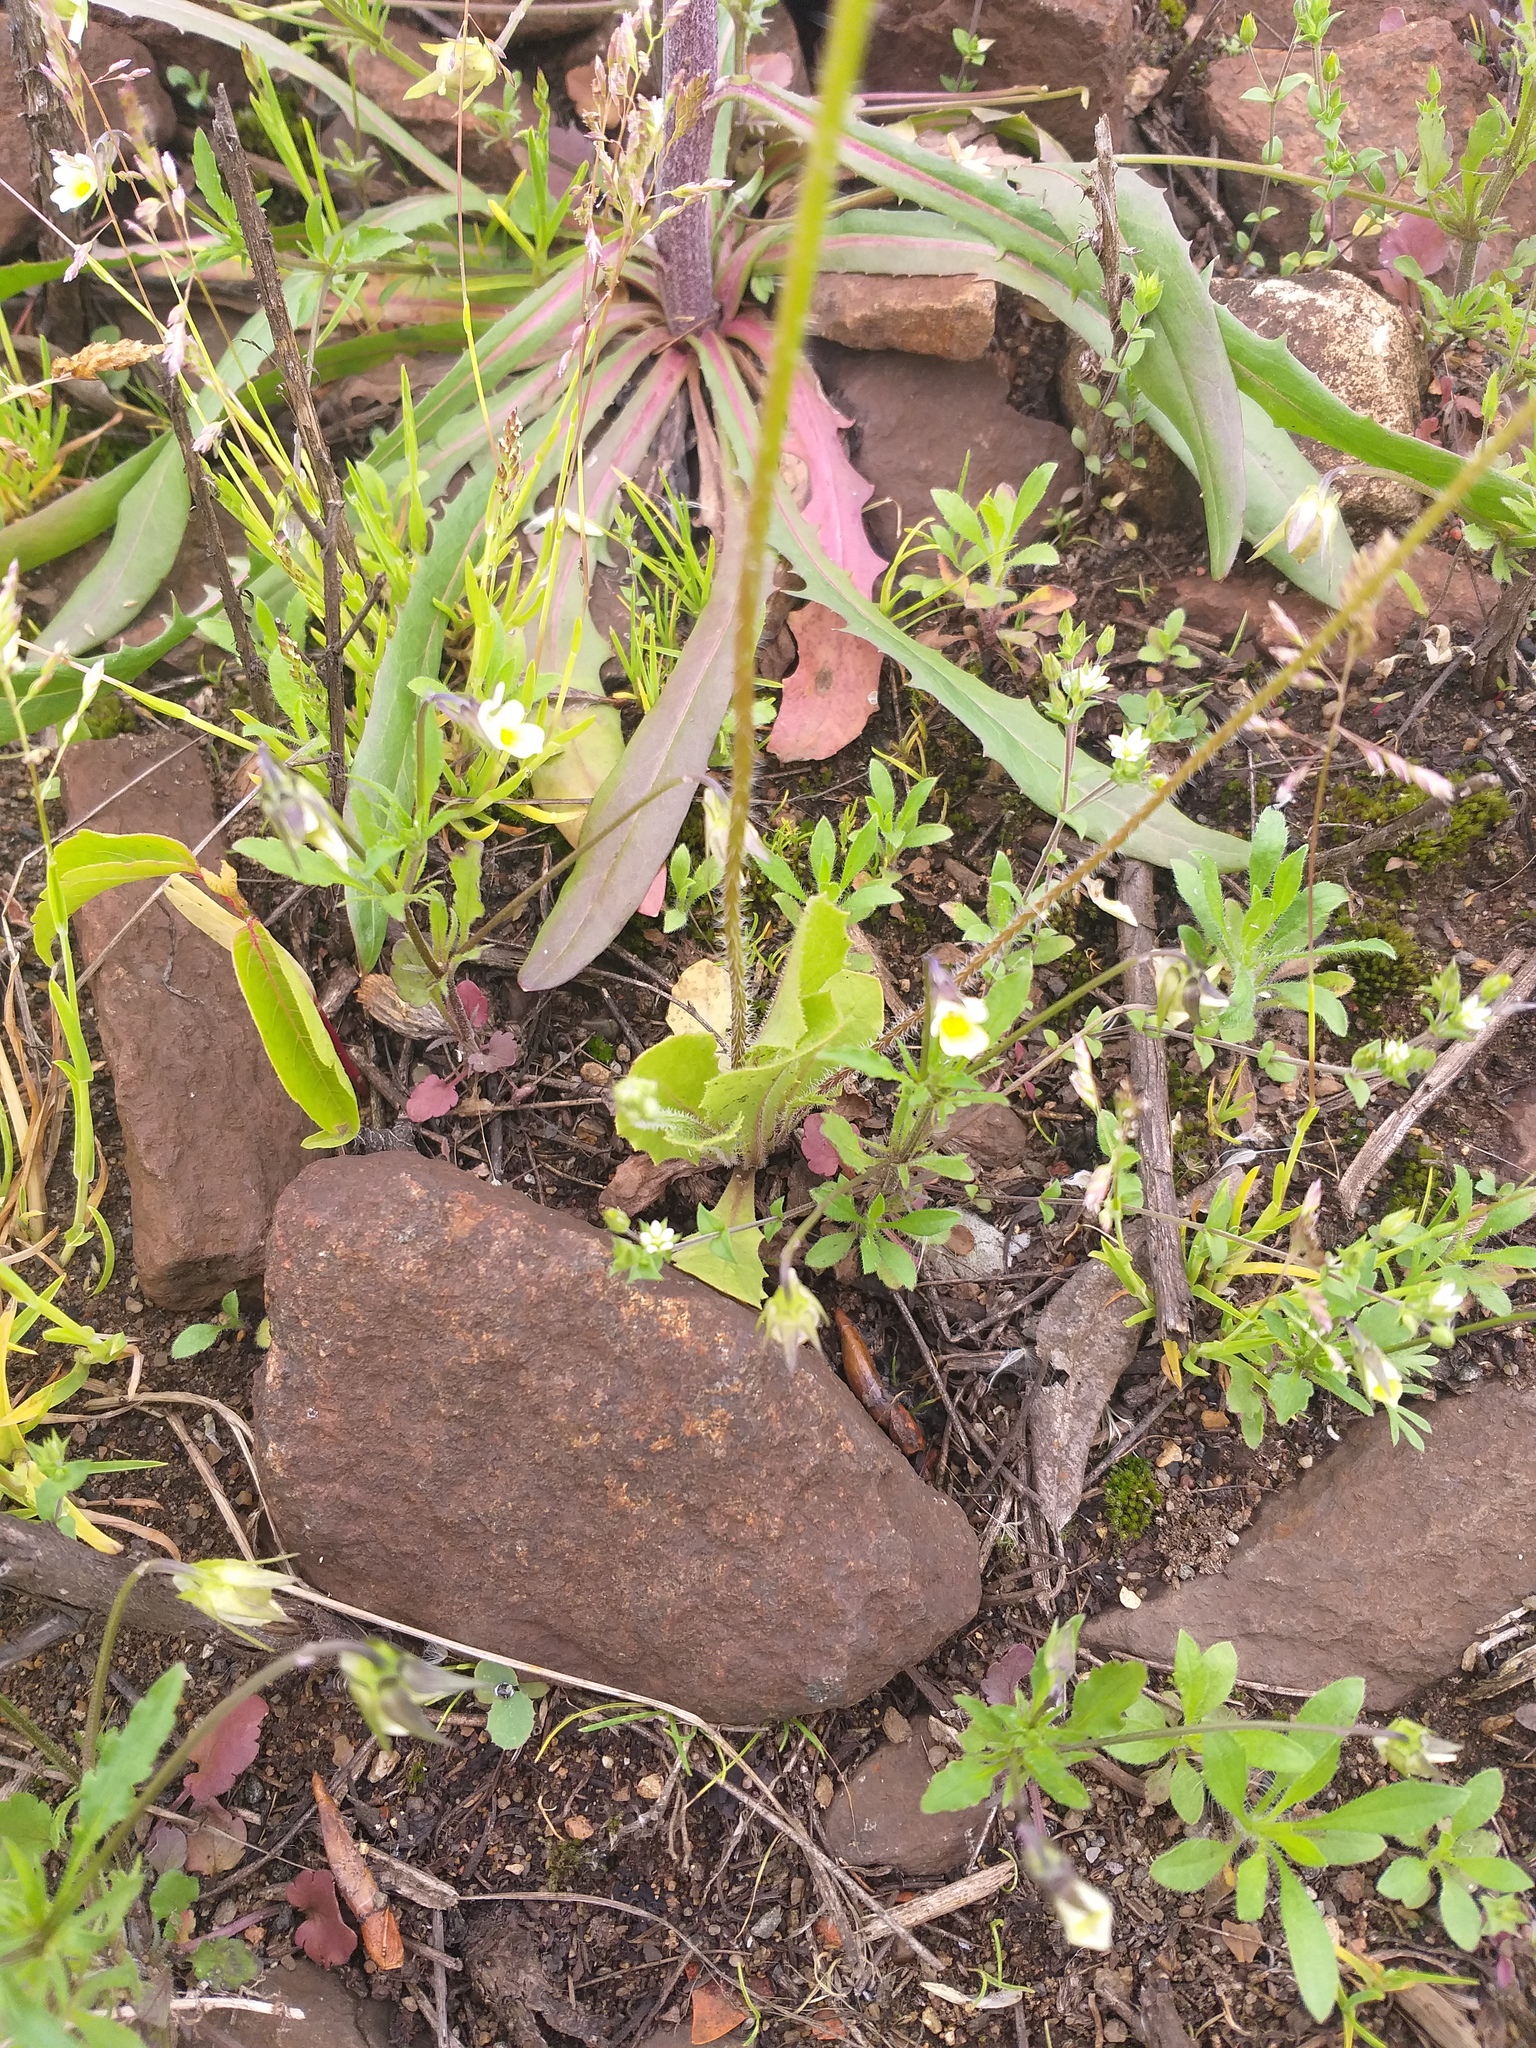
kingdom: Plantae
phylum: Tracheophyta
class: Magnoliopsida
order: Asterales
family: Asteraceae
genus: Crepis
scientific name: Crepis sancta
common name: Hawk's-beard
